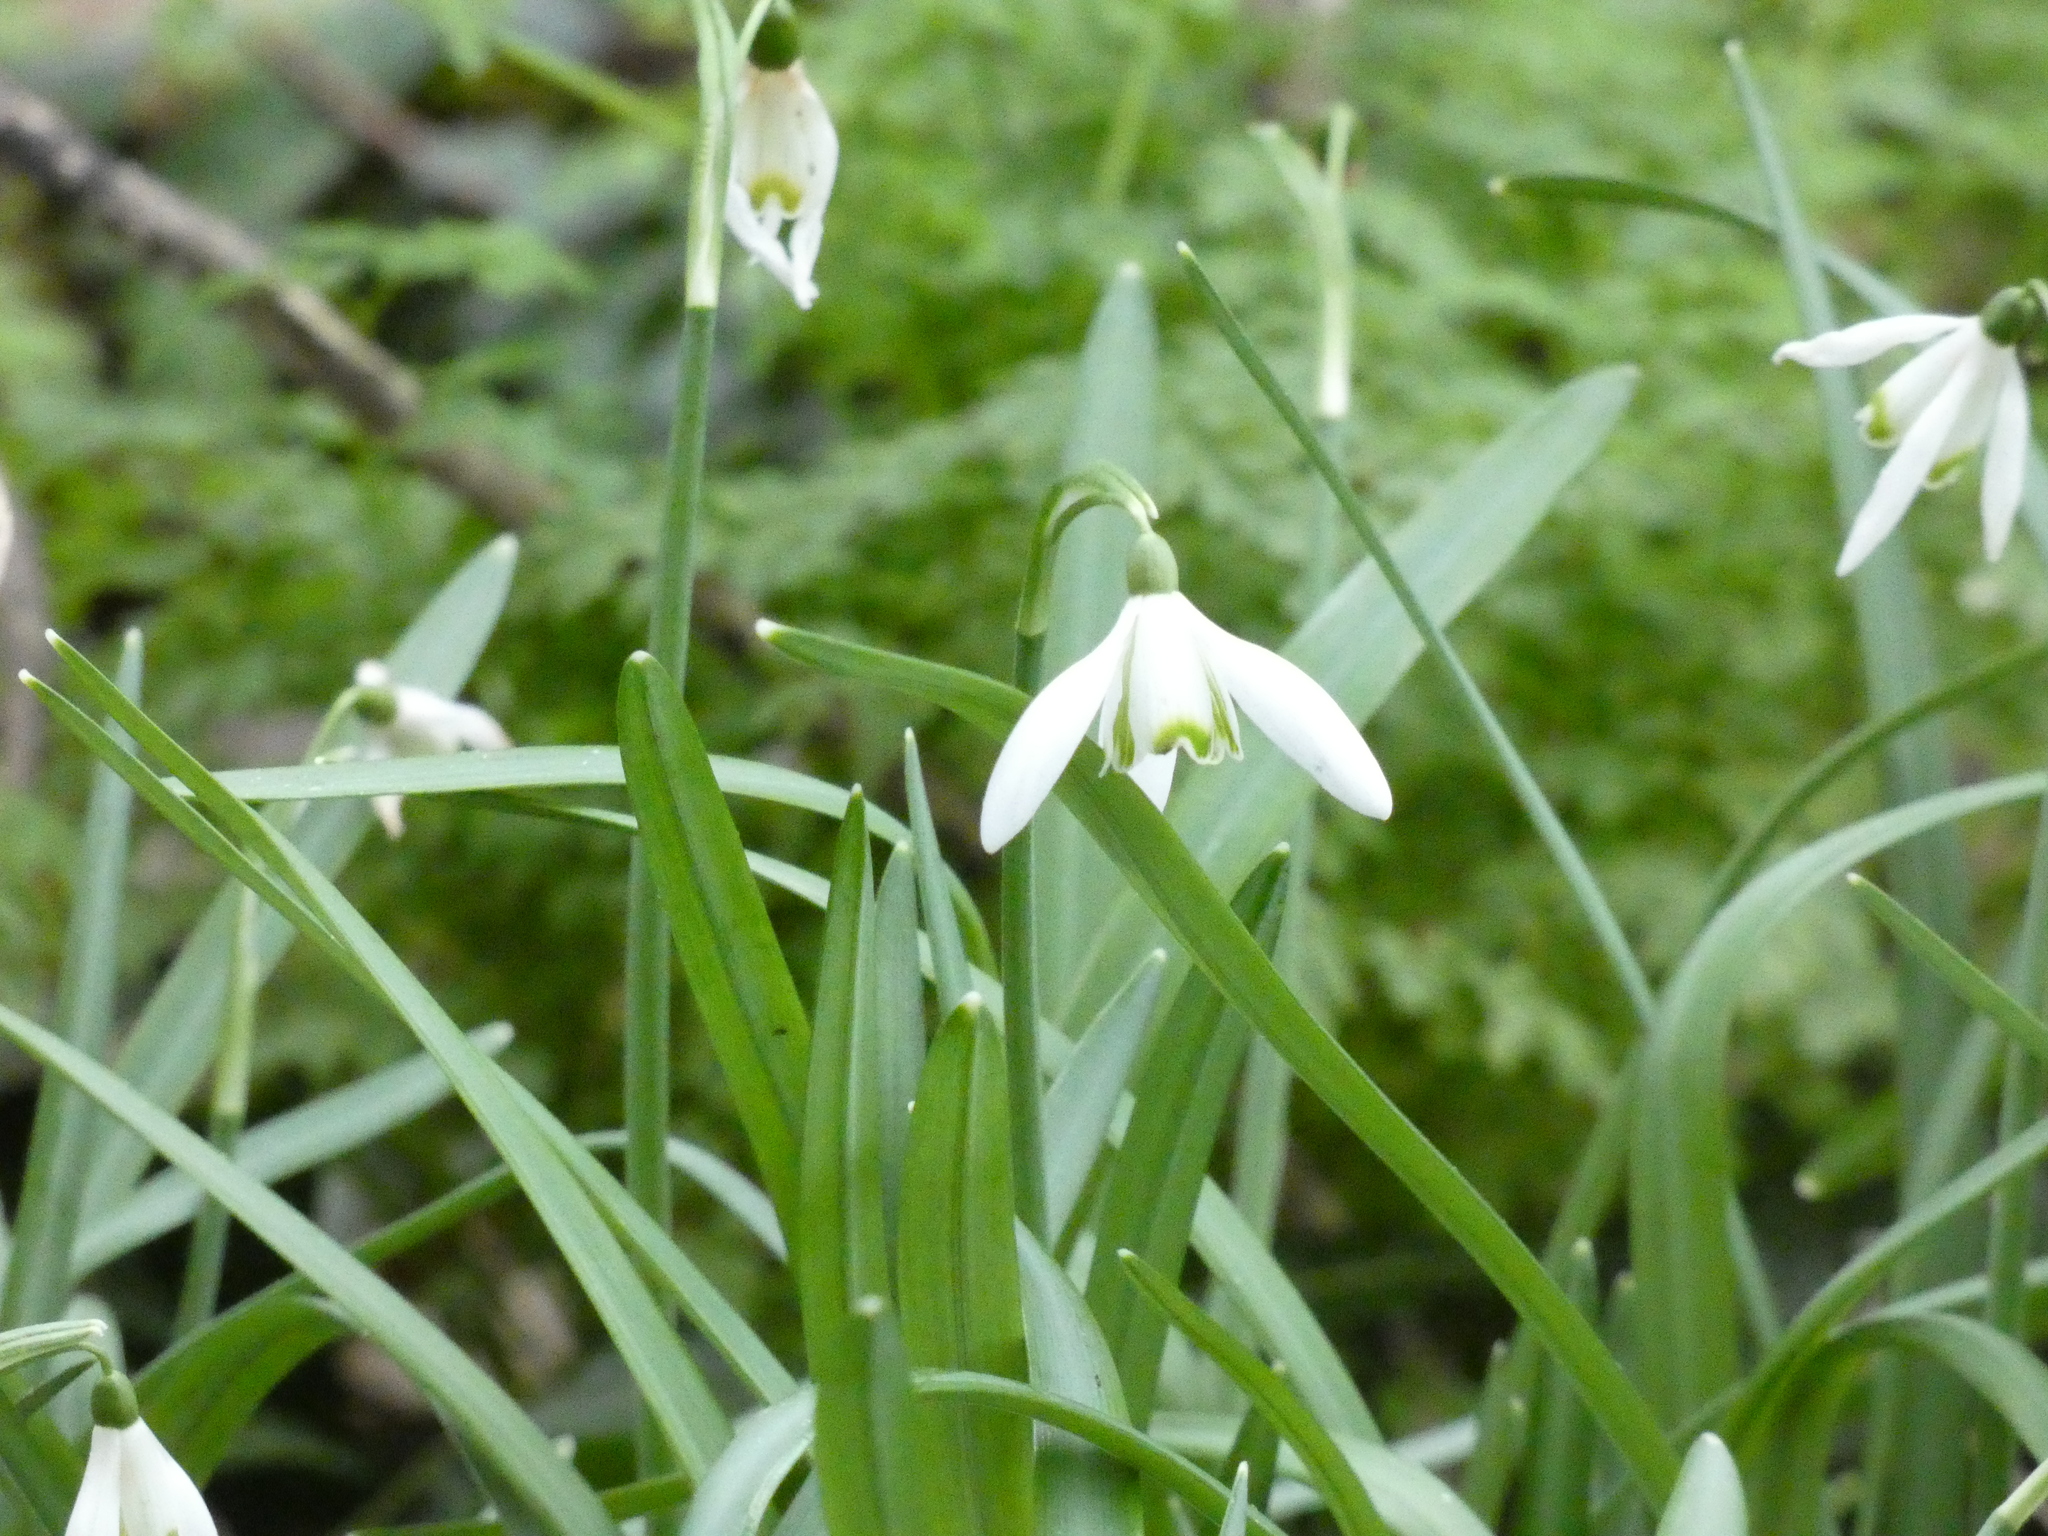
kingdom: Plantae
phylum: Tracheophyta
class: Liliopsida
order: Asparagales
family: Amaryllidaceae
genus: Galanthus
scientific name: Galanthus nivalis
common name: Snowdrop
